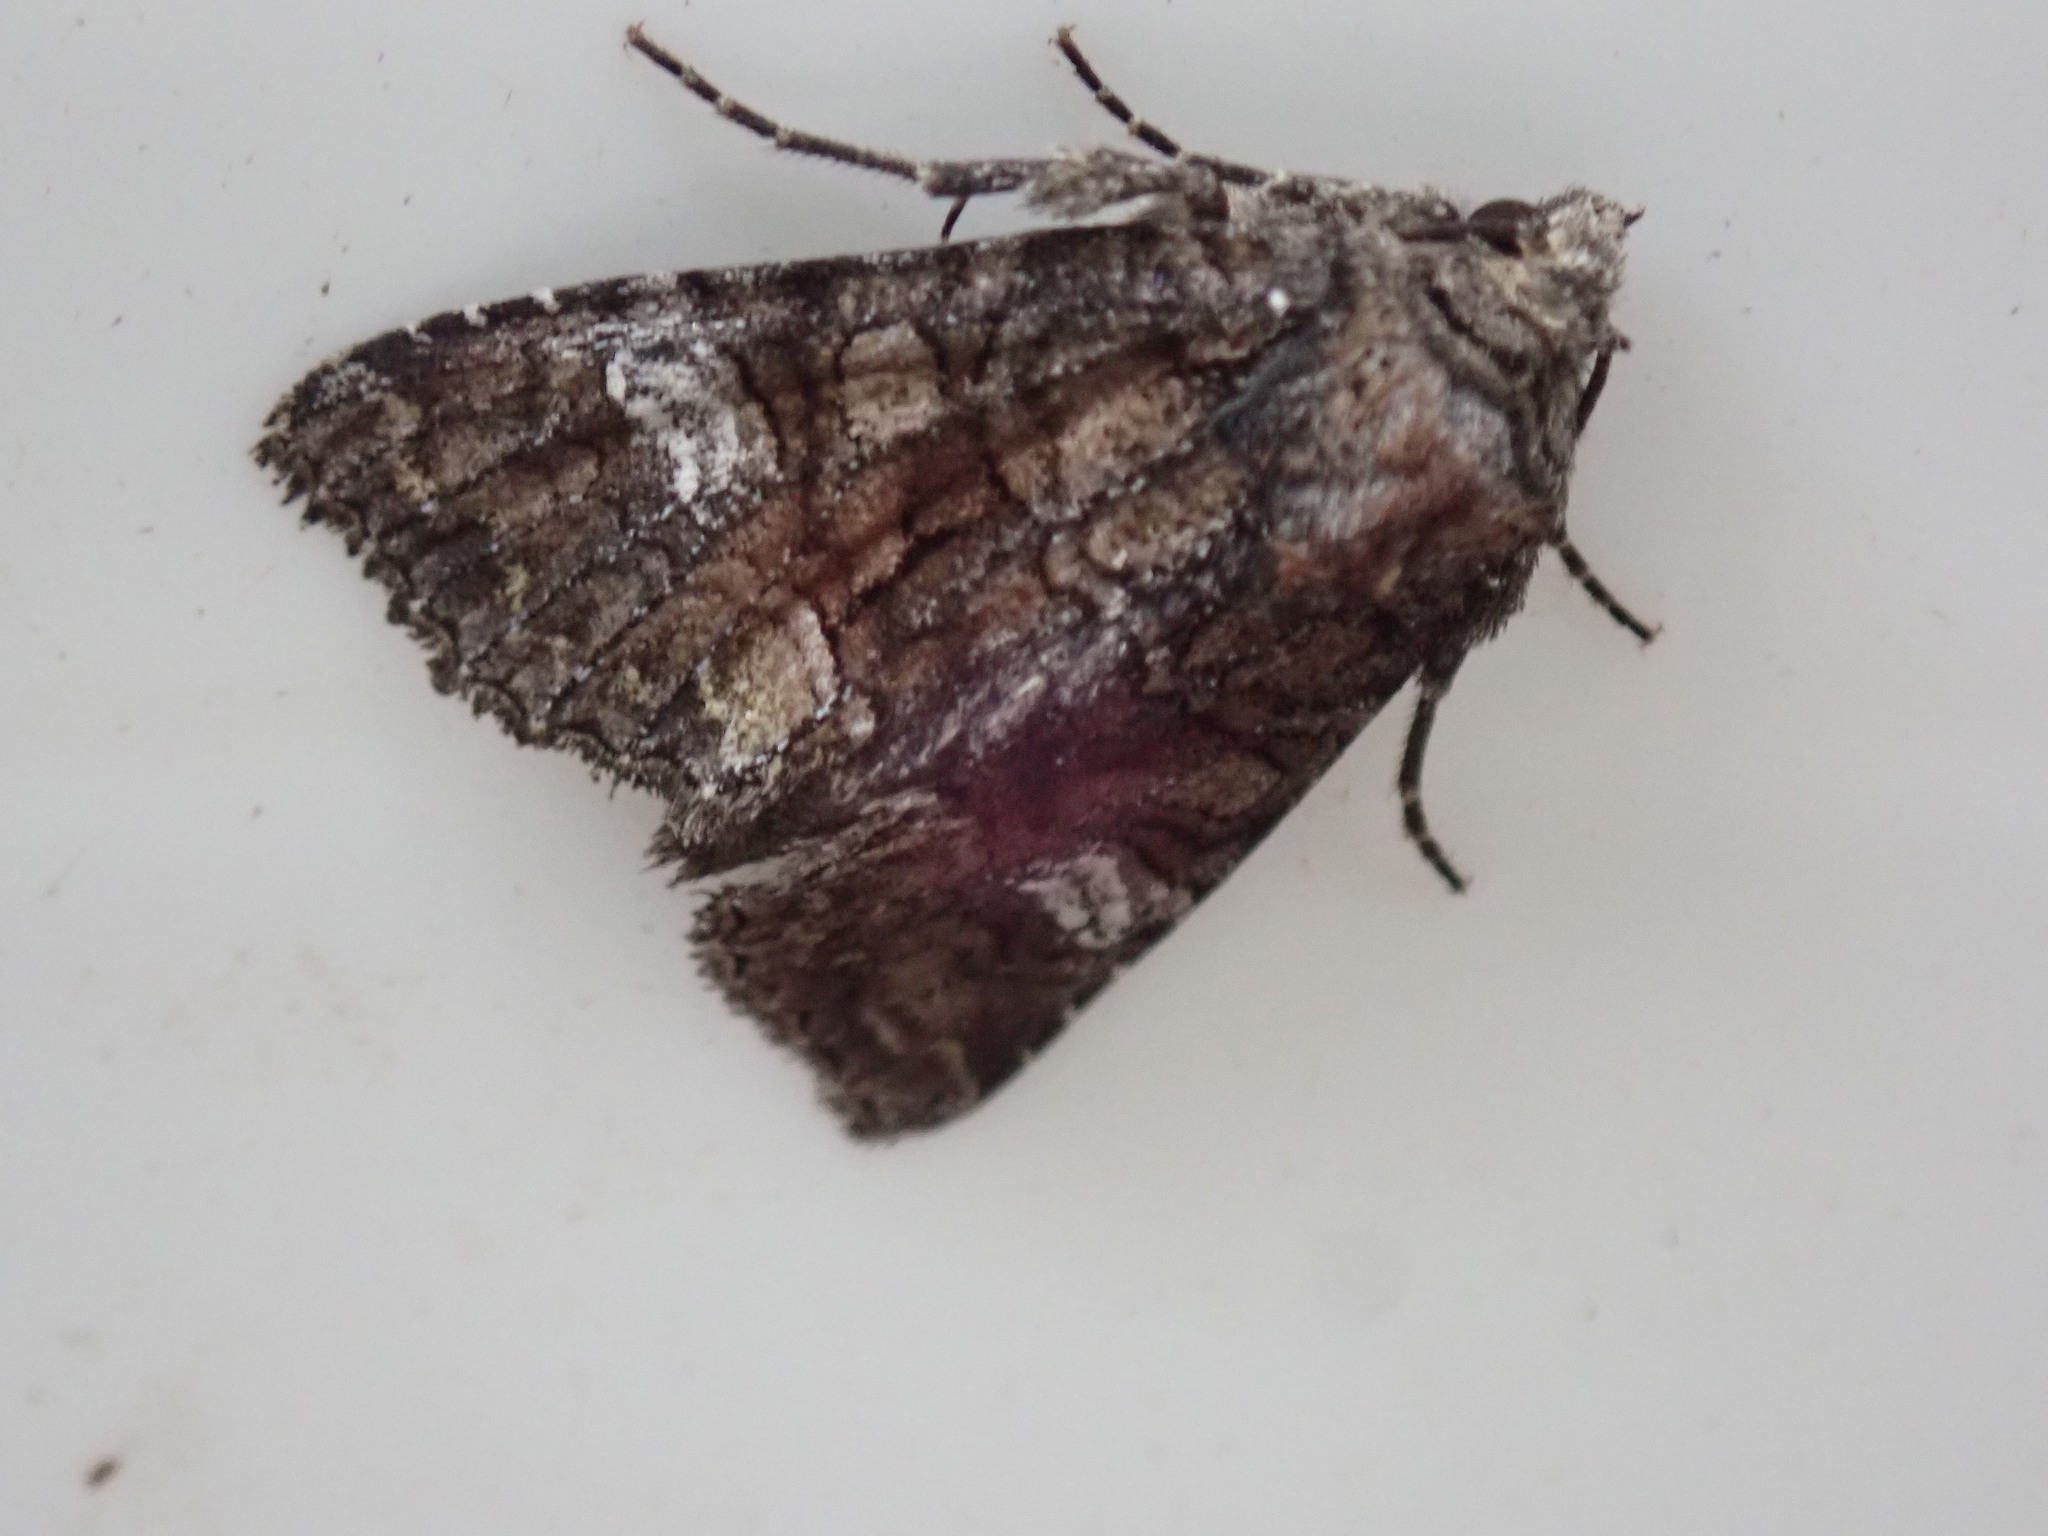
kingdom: Animalia
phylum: Arthropoda
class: Insecta
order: Lepidoptera
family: Noctuidae
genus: Fishia
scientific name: Fishia illocata
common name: Wandering brocade moth
